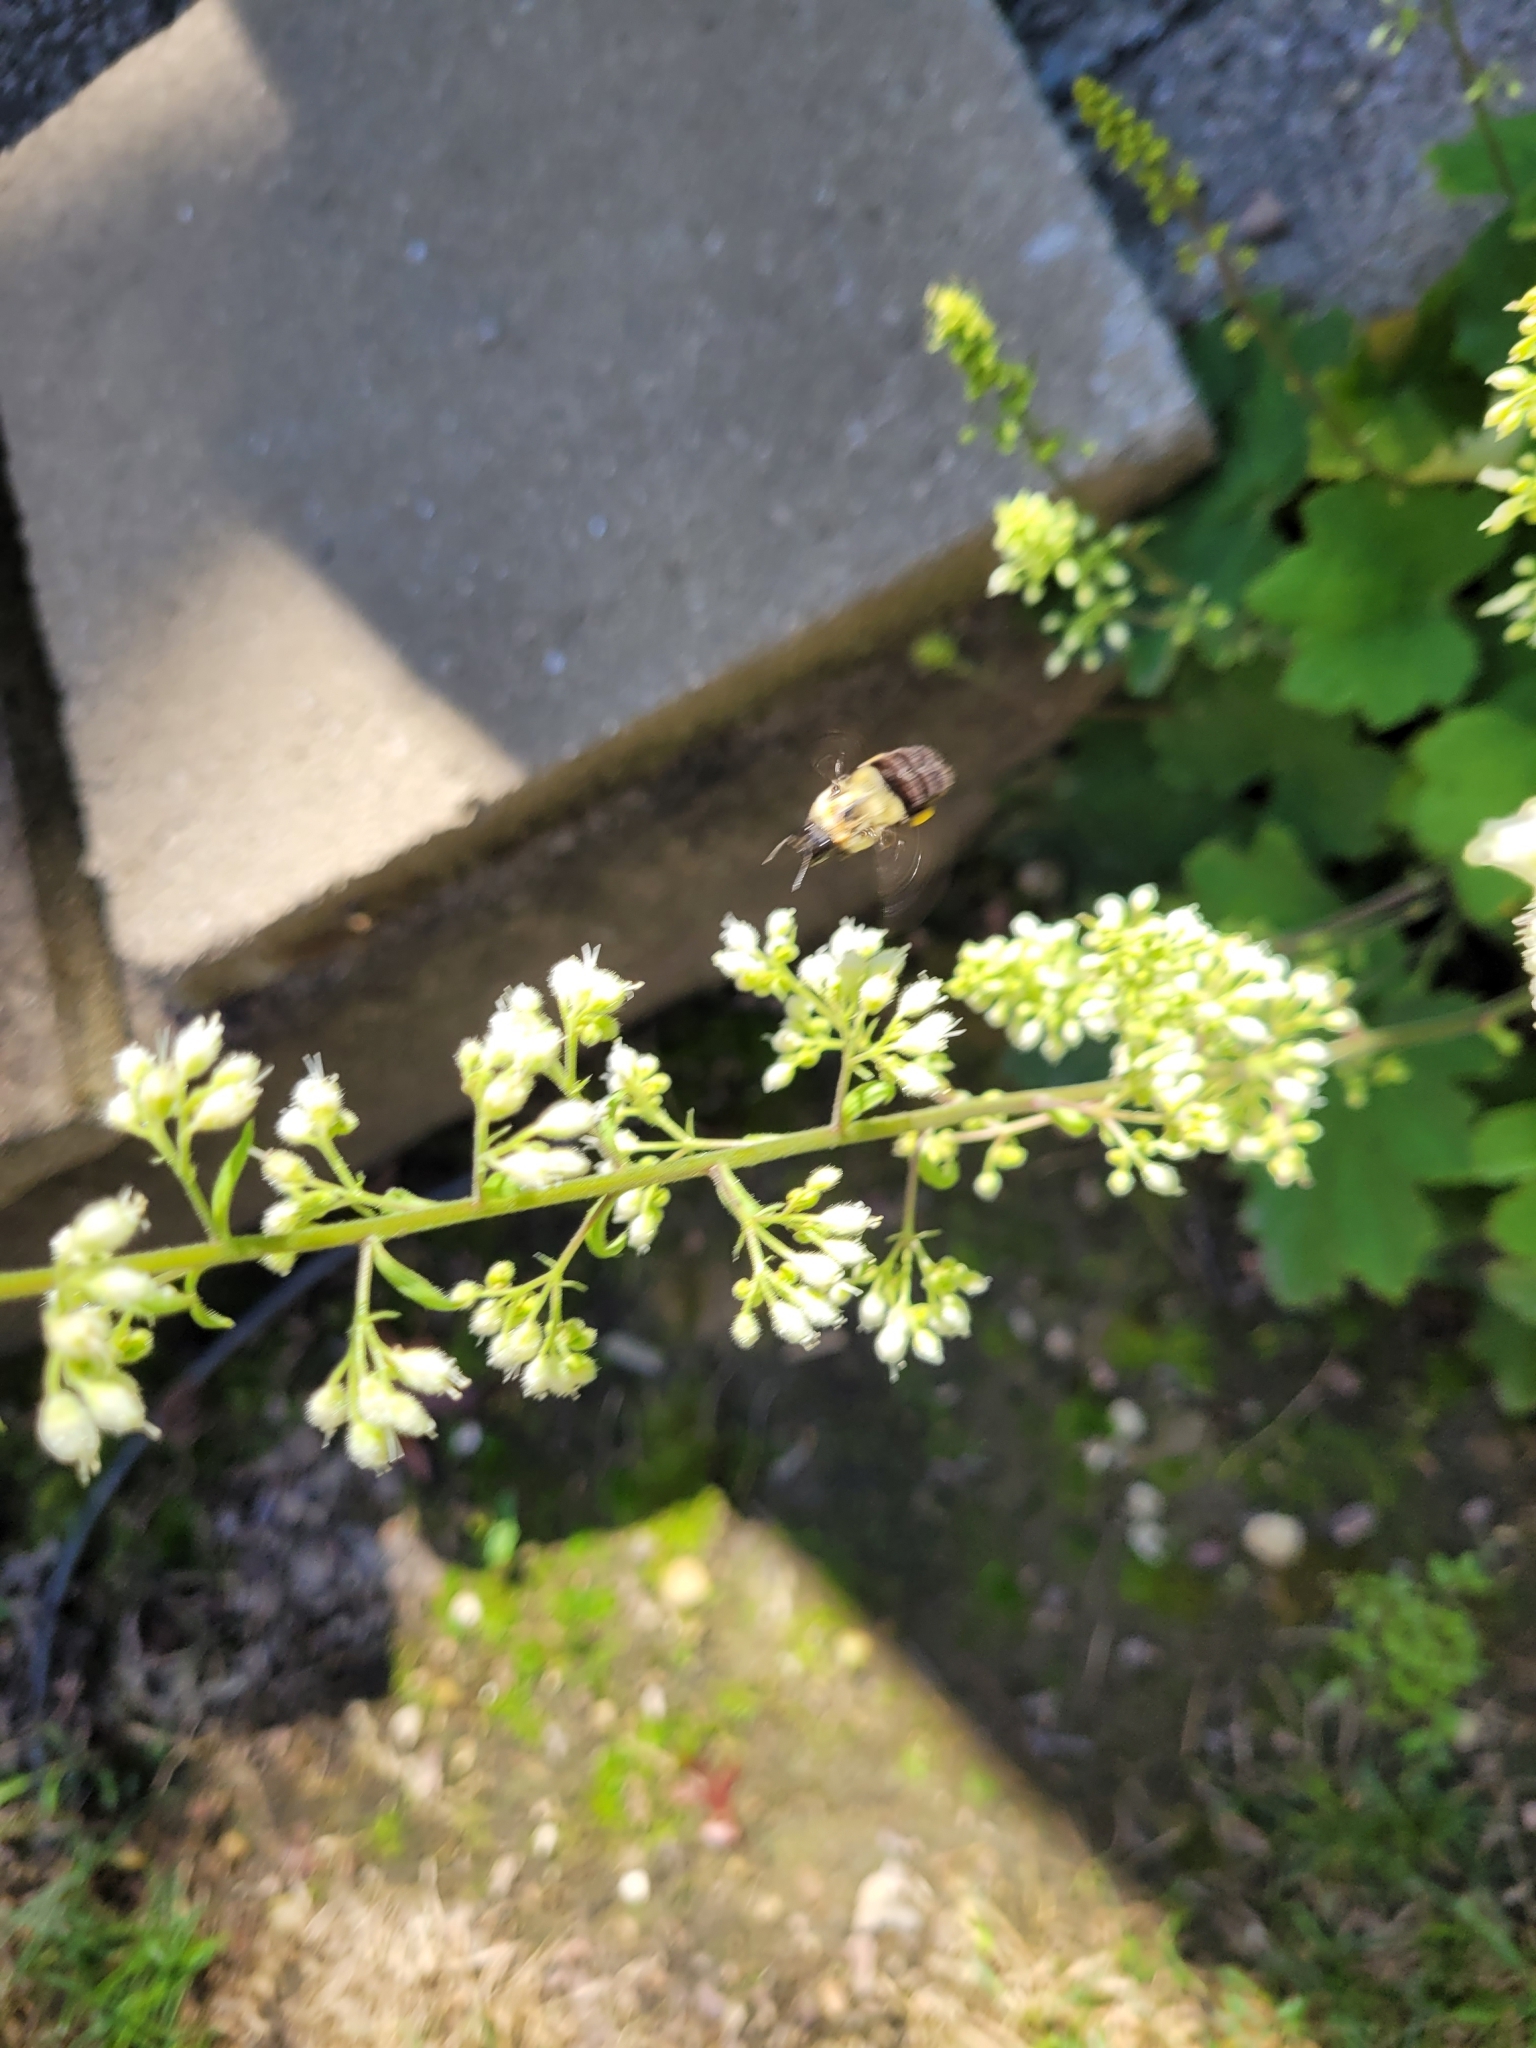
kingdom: Animalia
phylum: Arthropoda
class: Insecta
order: Hymenoptera
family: Apidae
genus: Bombus
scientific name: Bombus impatiens
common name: Common eastern bumble bee
